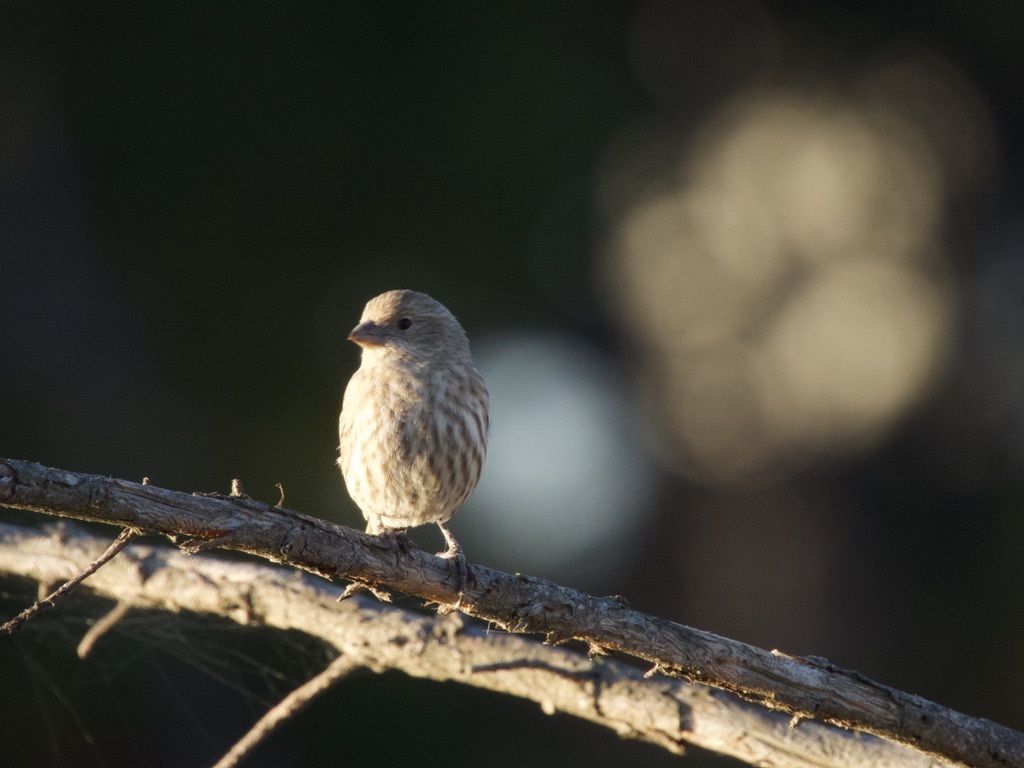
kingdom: Animalia
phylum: Chordata
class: Aves
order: Passeriformes
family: Fringillidae
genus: Haemorhous
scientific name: Haemorhous mexicanus
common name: House finch
